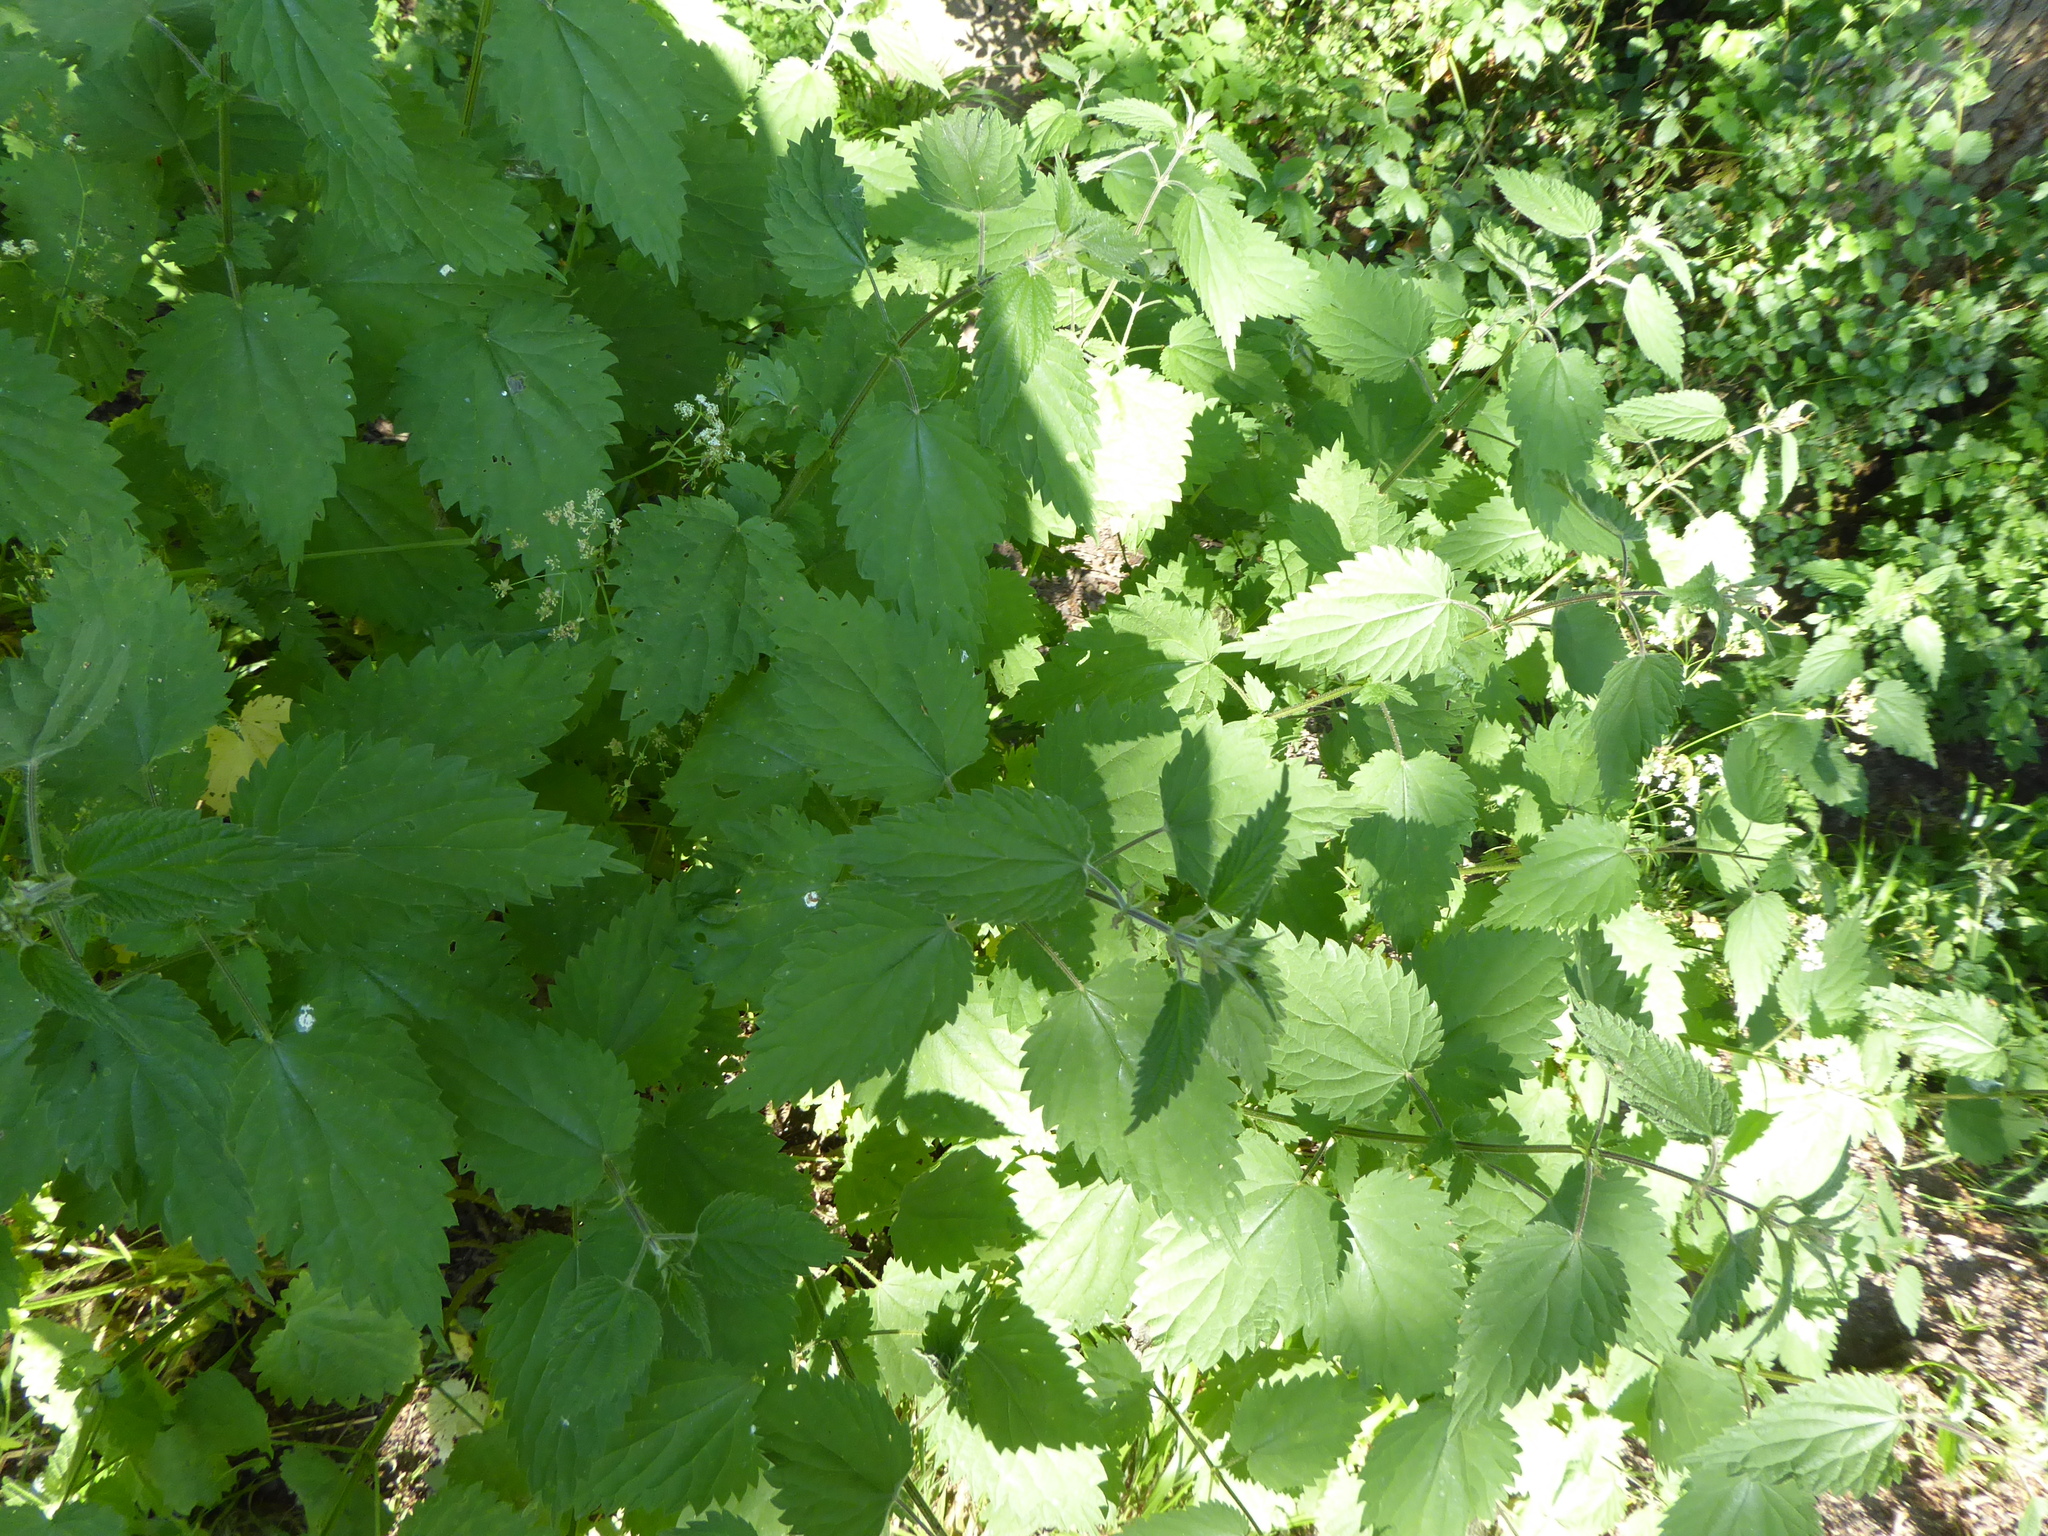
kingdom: Plantae
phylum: Tracheophyta
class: Magnoliopsida
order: Rosales
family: Urticaceae
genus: Urtica
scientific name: Urtica dioica
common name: Common nettle
